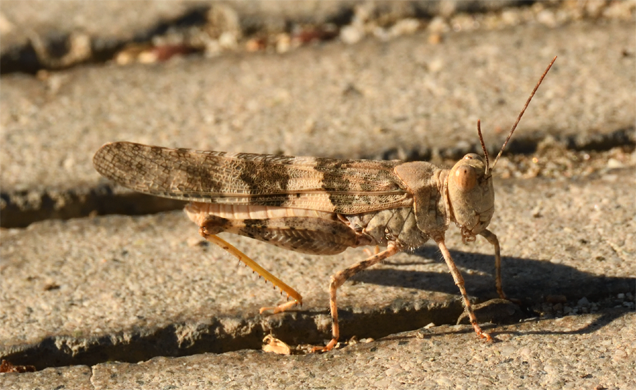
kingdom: Animalia
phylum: Arthropoda
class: Insecta
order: Orthoptera
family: Acrididae
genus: Trimerotropis
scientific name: Trimerotropis pallidipennis
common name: Pallid-winged grasshopper
